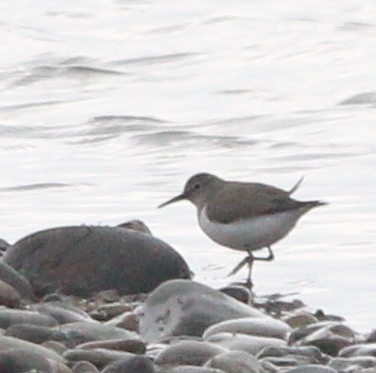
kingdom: Animalia
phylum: Chordata
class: Aves
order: Charadriiformes
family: Scolopacidae
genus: Actitis
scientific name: Actitis hypoleucos
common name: Common sandpiper
